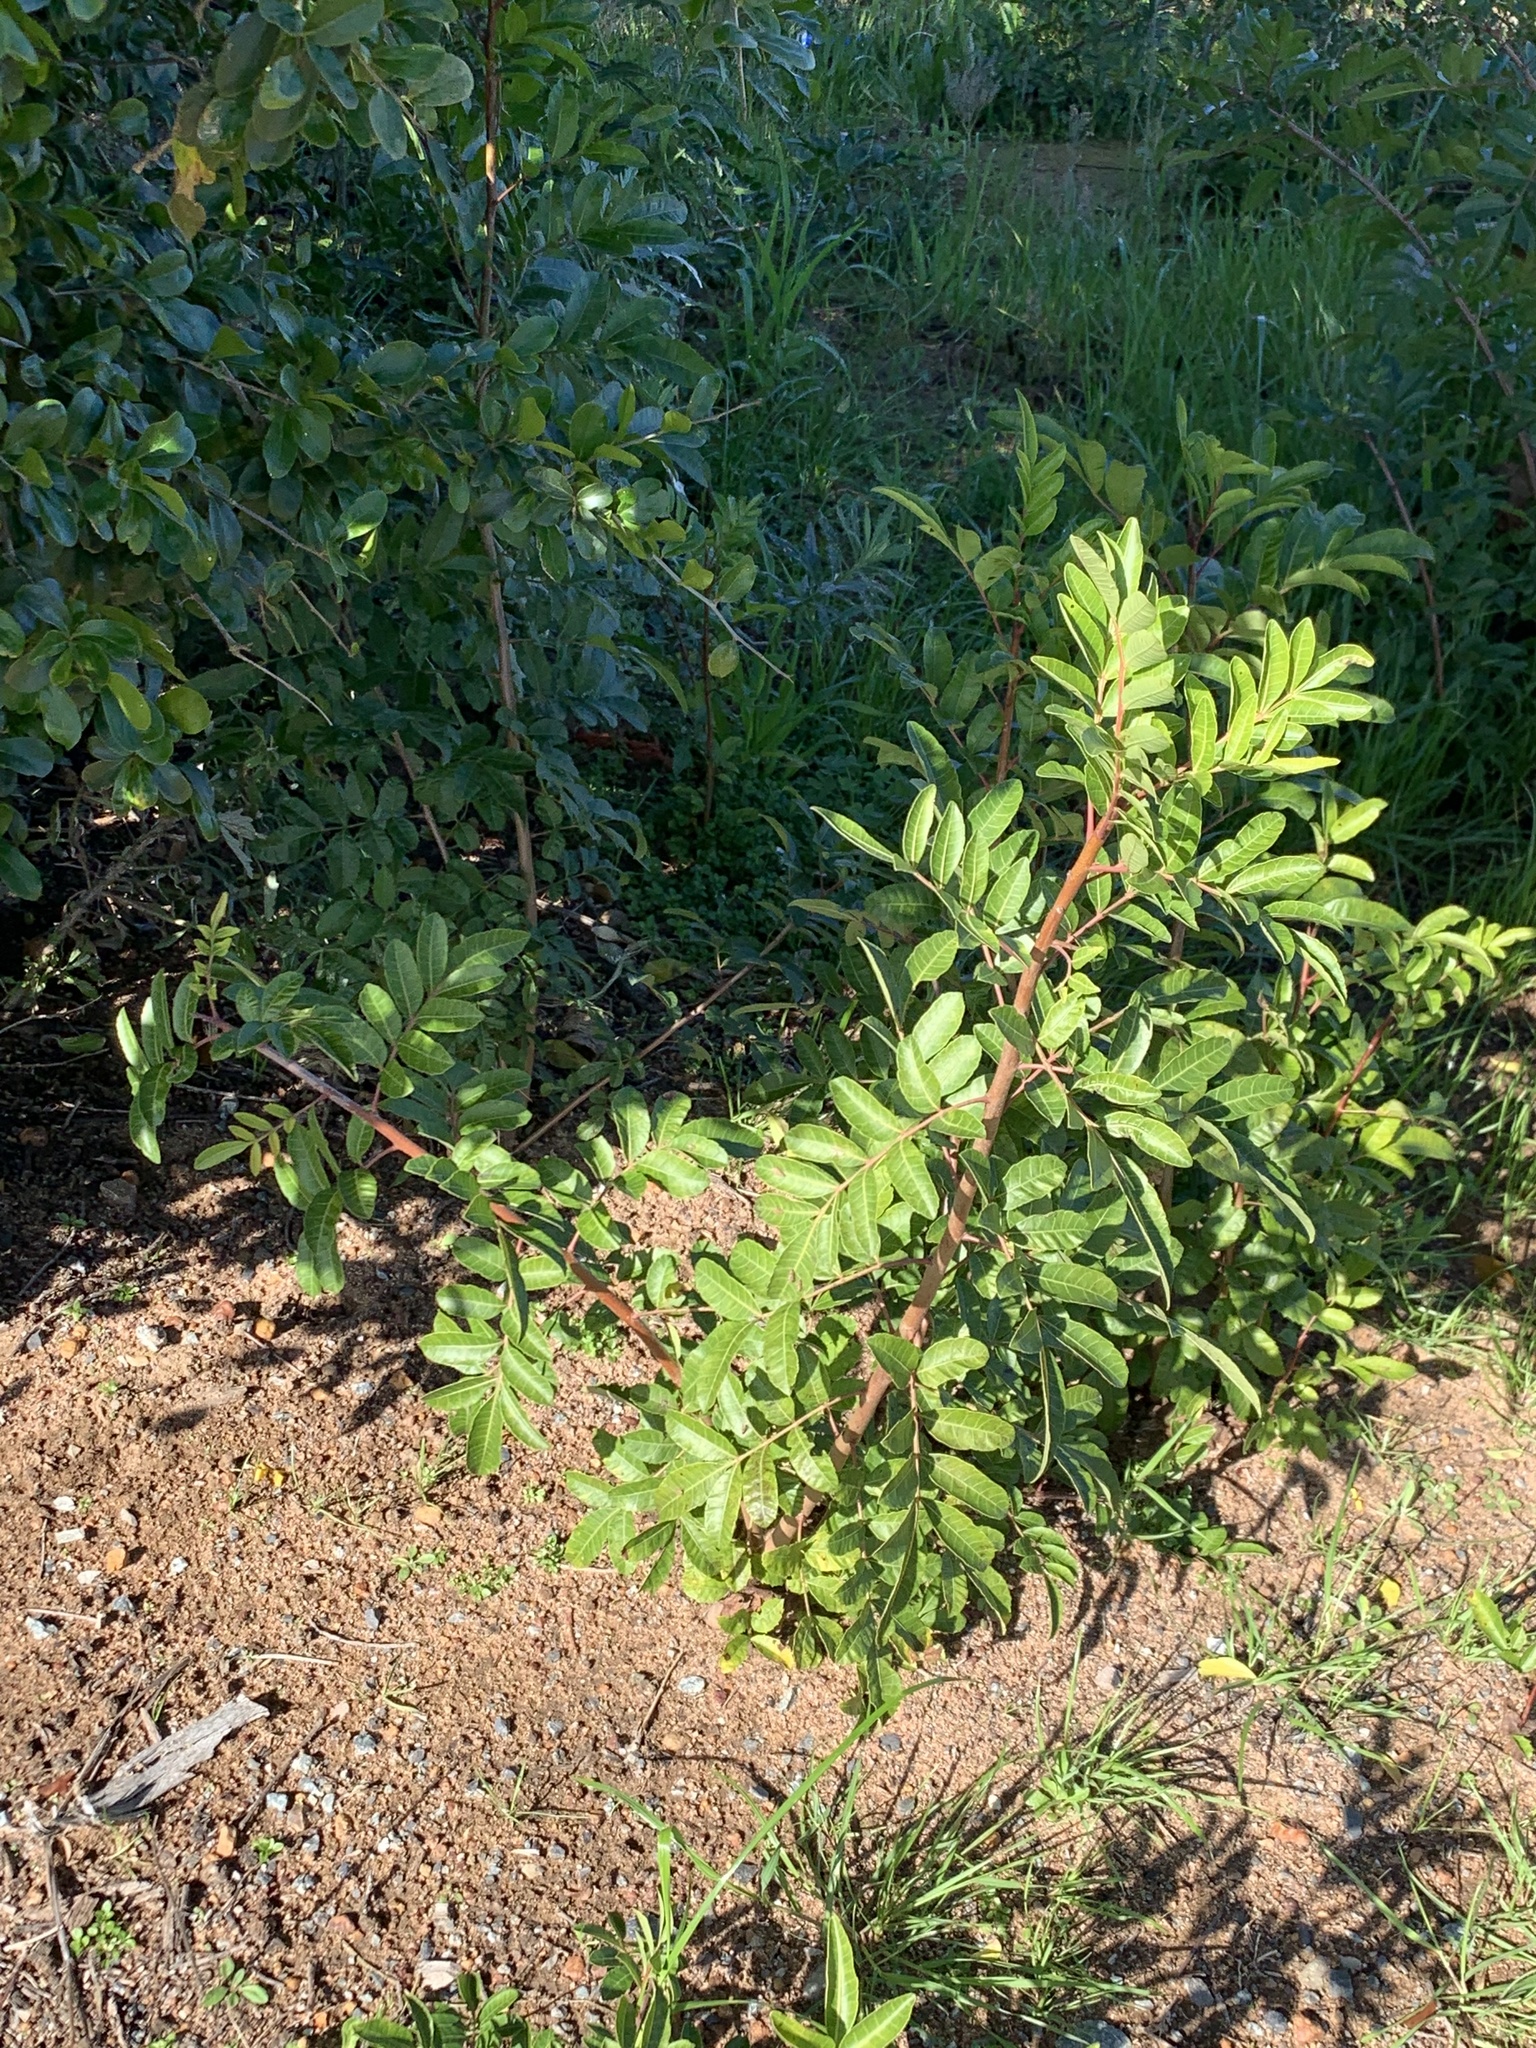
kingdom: Plantae
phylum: Tracheophyta
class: Magnoliopsida
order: Sapindales
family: Anacardiaceae
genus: Schinus
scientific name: Schinus terebinthifolia
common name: Brazilian peppertree
